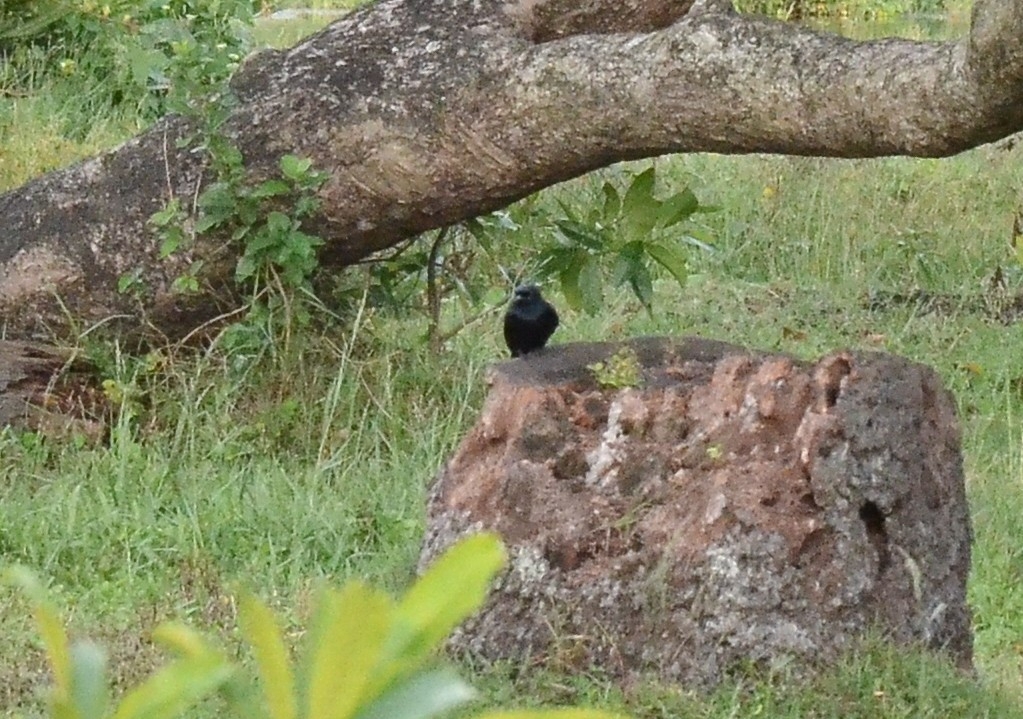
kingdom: Animalia
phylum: Chordata
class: Aves
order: Passeriformes
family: Dicruridae
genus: Dicrurus
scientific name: Dicrurus macrocercus
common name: Black drongo
